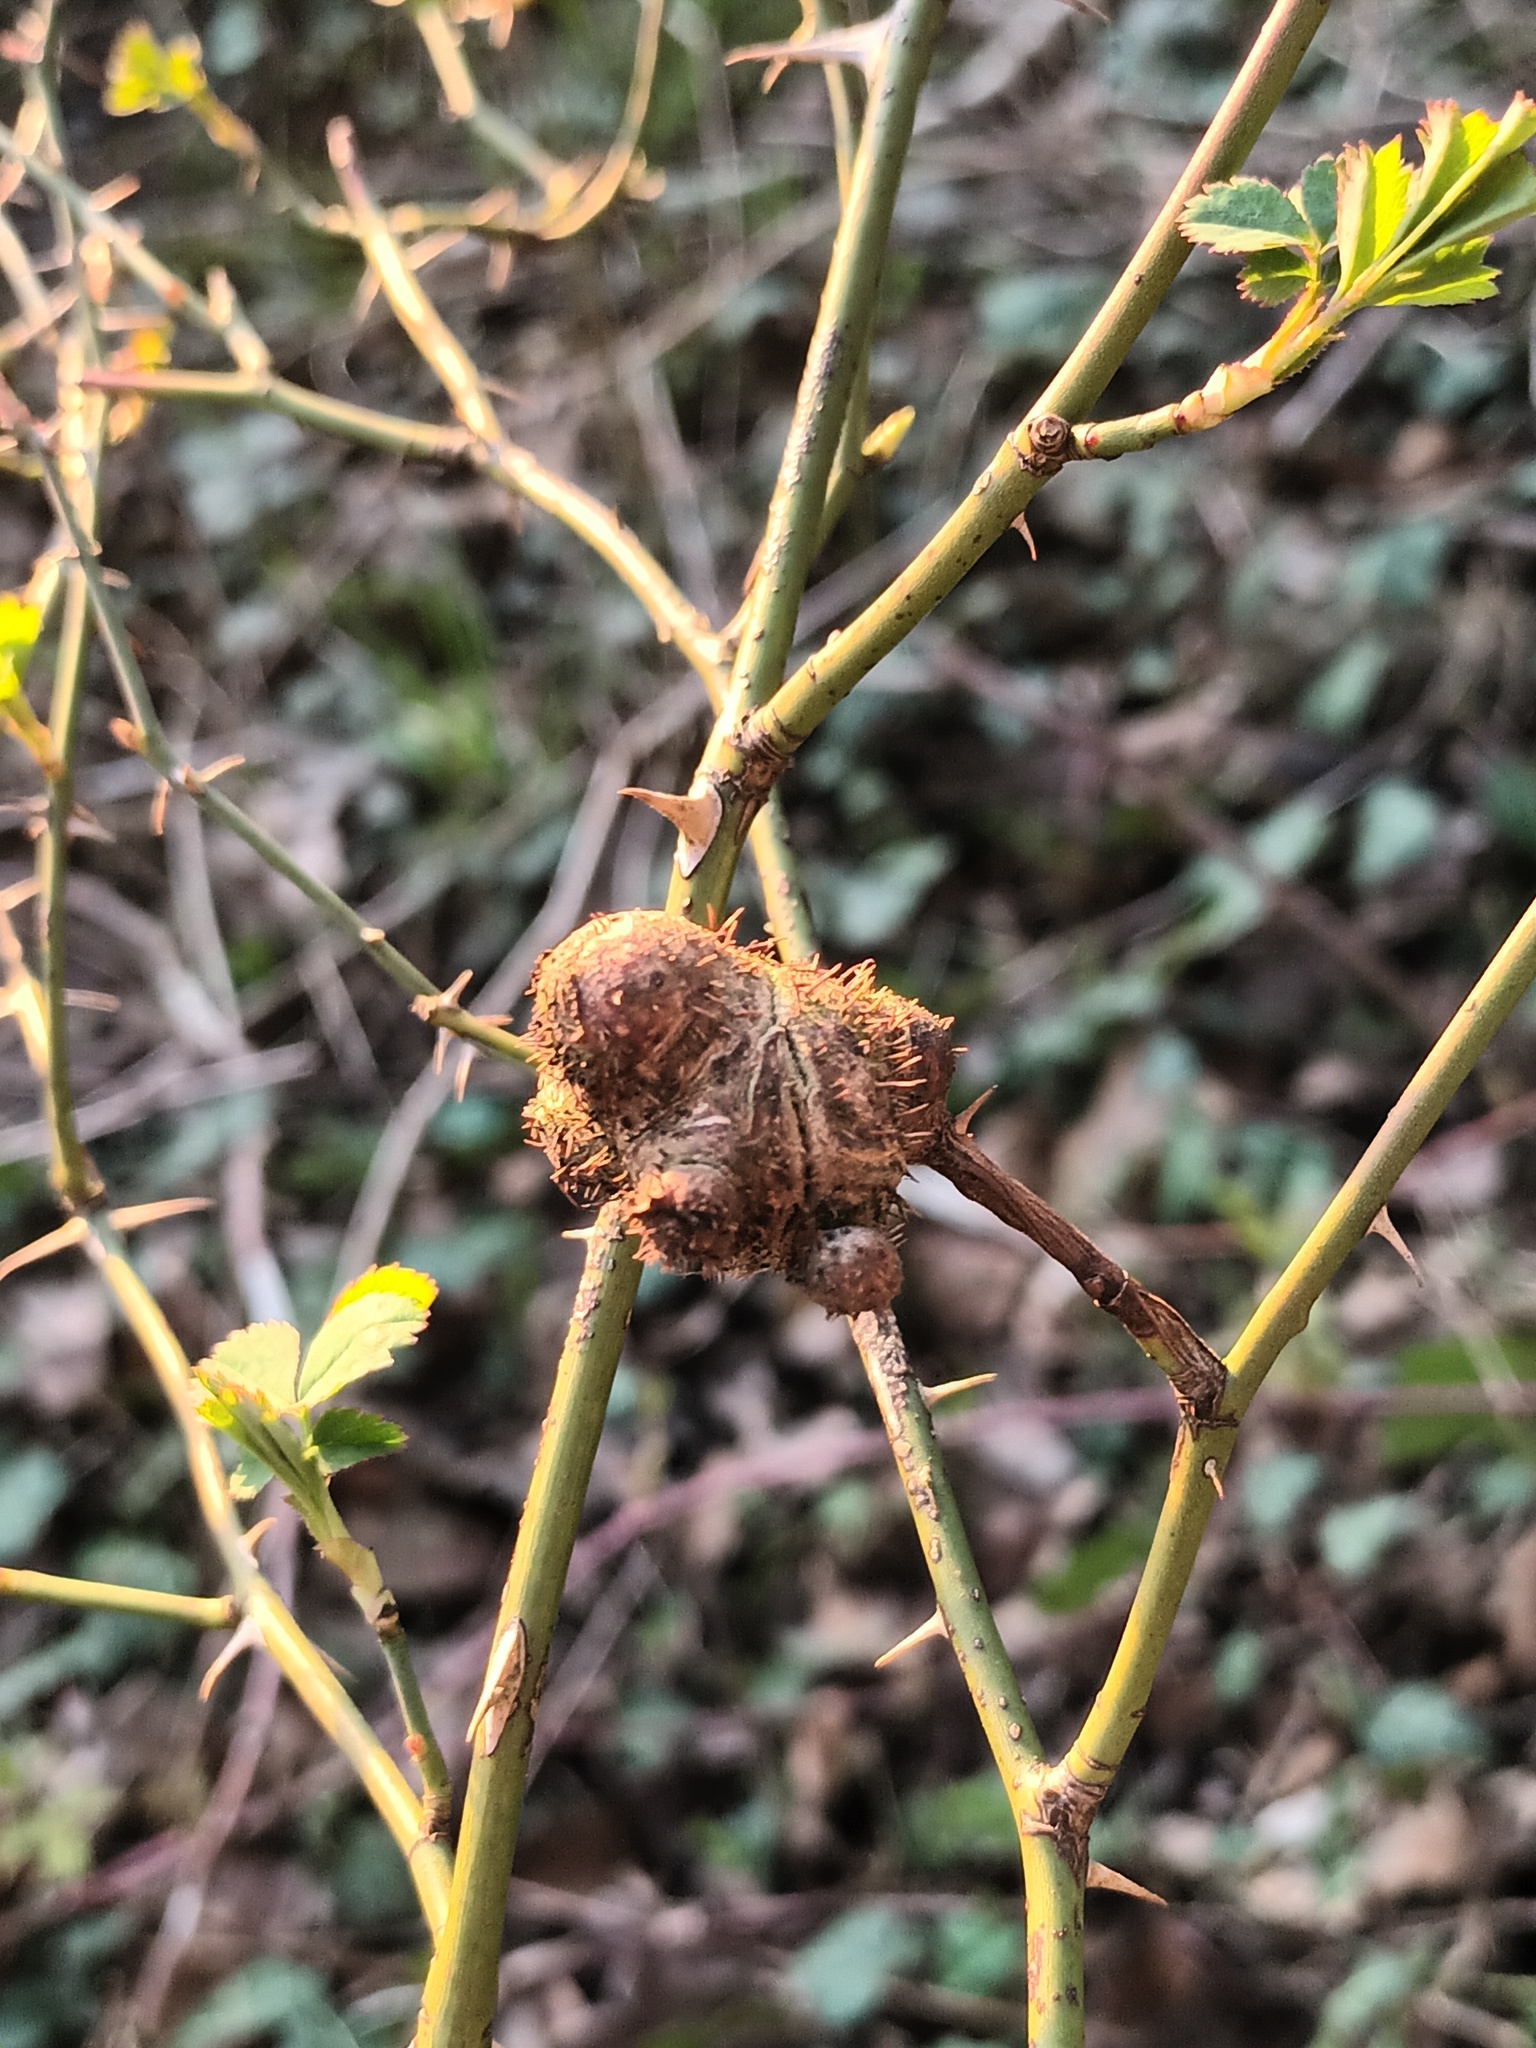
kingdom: Animalia
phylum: Arthropoda
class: Insecta
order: Hymenoptera
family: Cynipidae
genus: Diplolepis
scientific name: Diplolepis mayri
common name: Gall wasp
